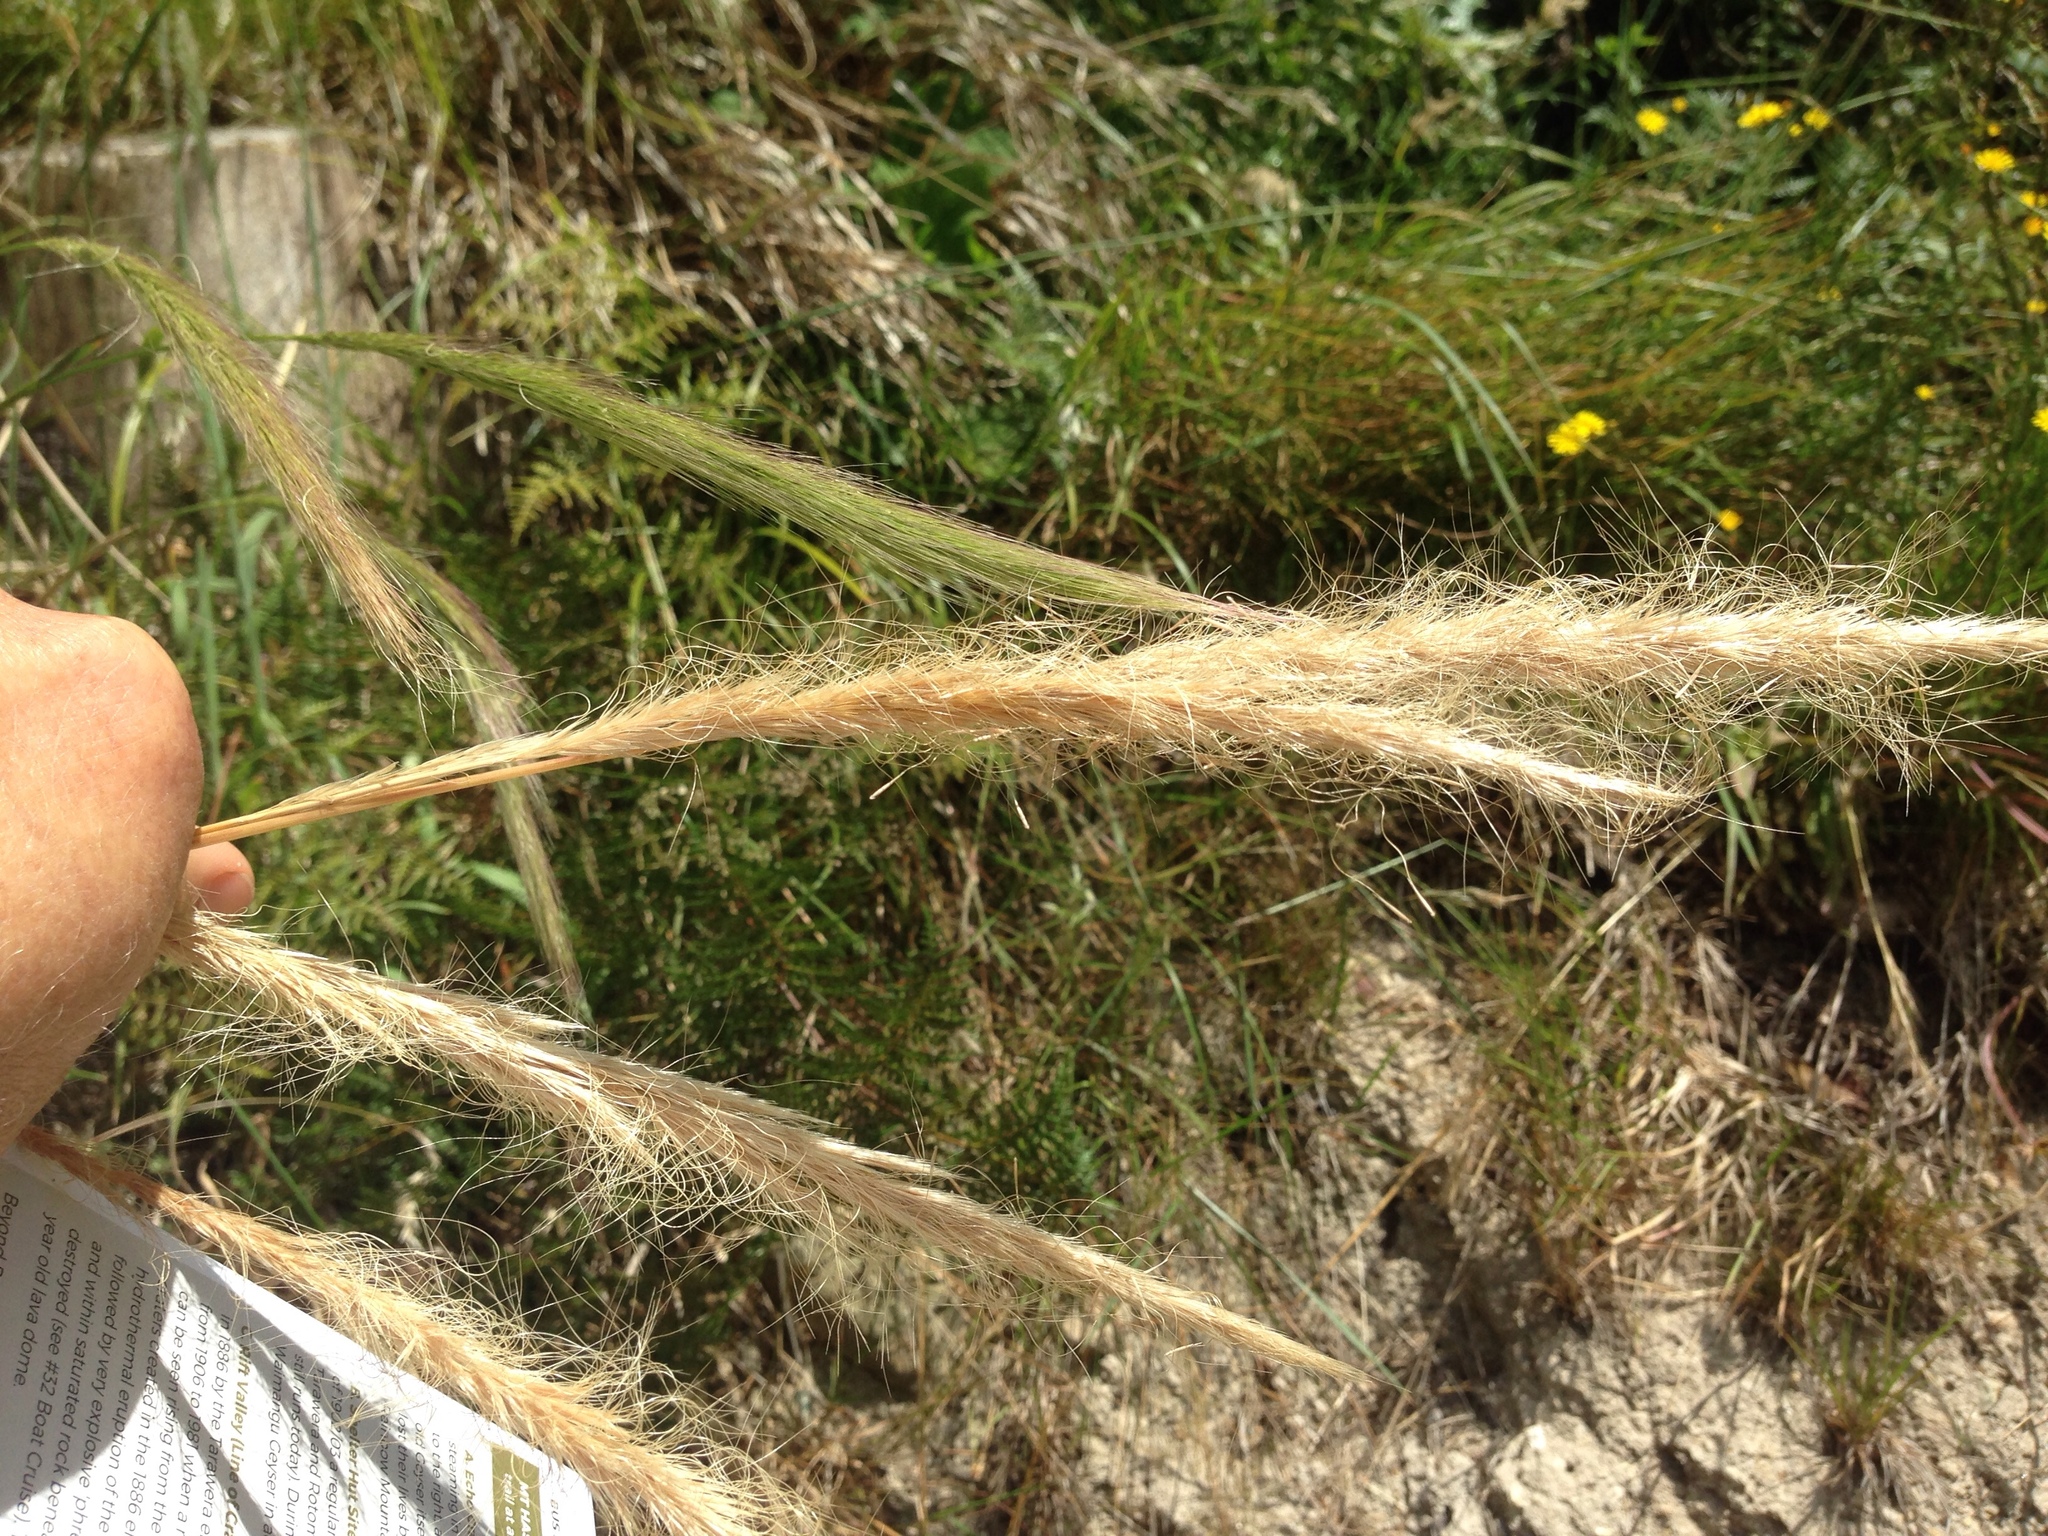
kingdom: Plantae
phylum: Tracheophyta
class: Liliopsida
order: Poales
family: Poaceae
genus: Dichelachne
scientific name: Dichelachne crinita
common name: Clovenfoot plumegrass
